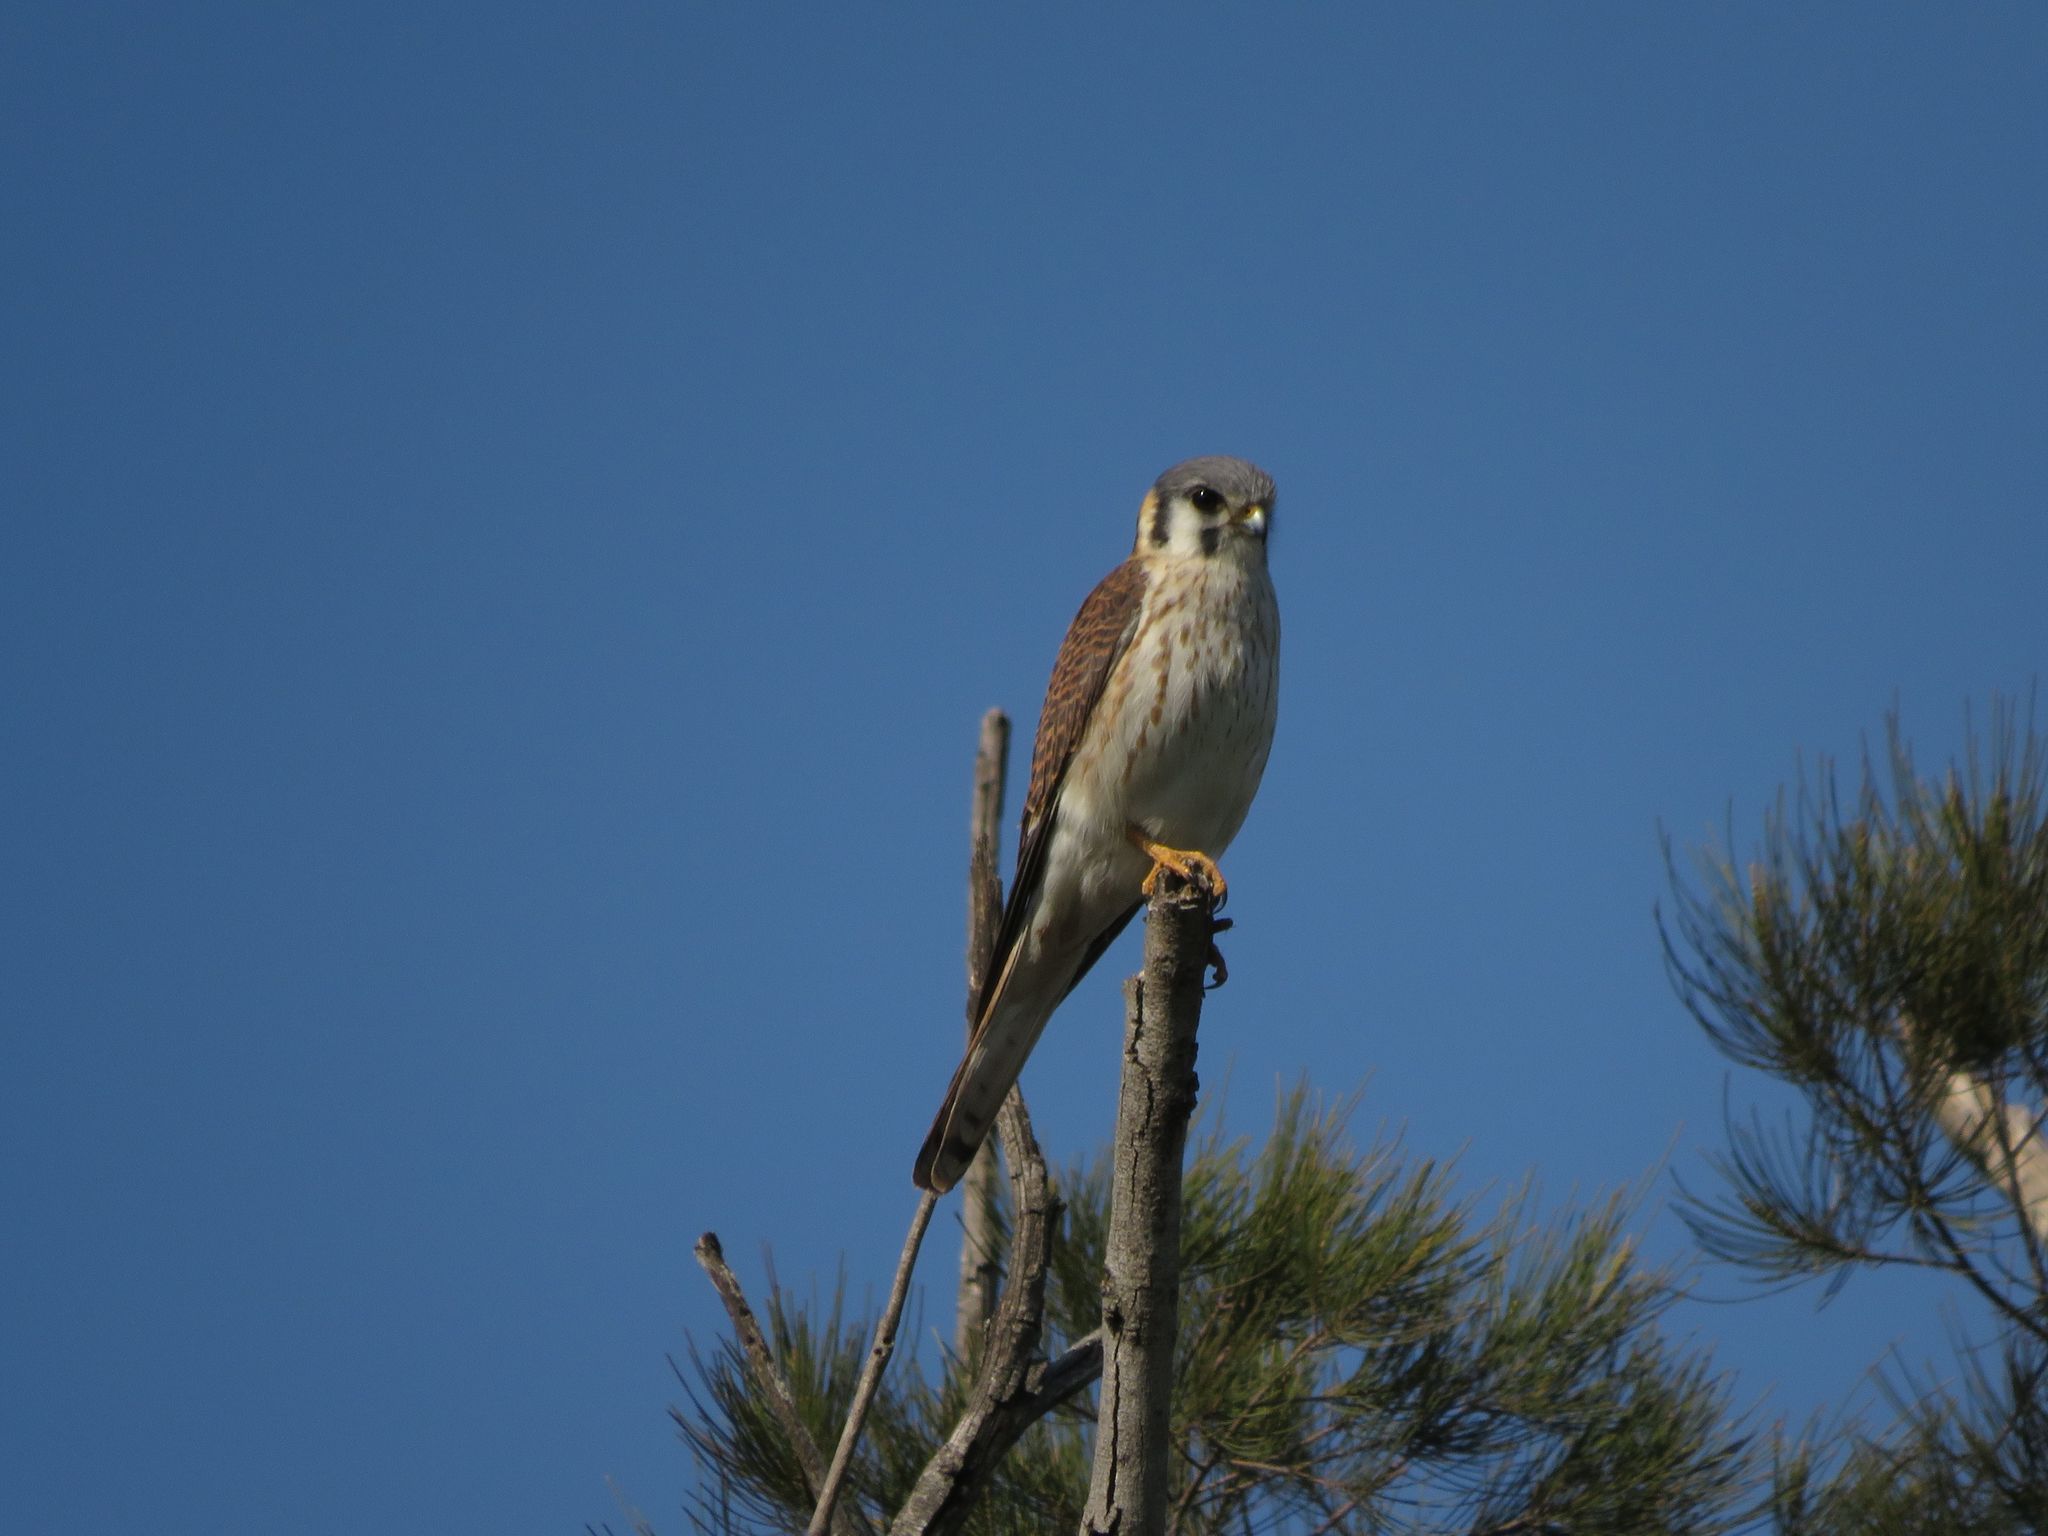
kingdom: Animalia
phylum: Chordata
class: Aves
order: Falconiformes
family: Falconidae
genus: Falco
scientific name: Falco sparverius
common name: American kestrel
